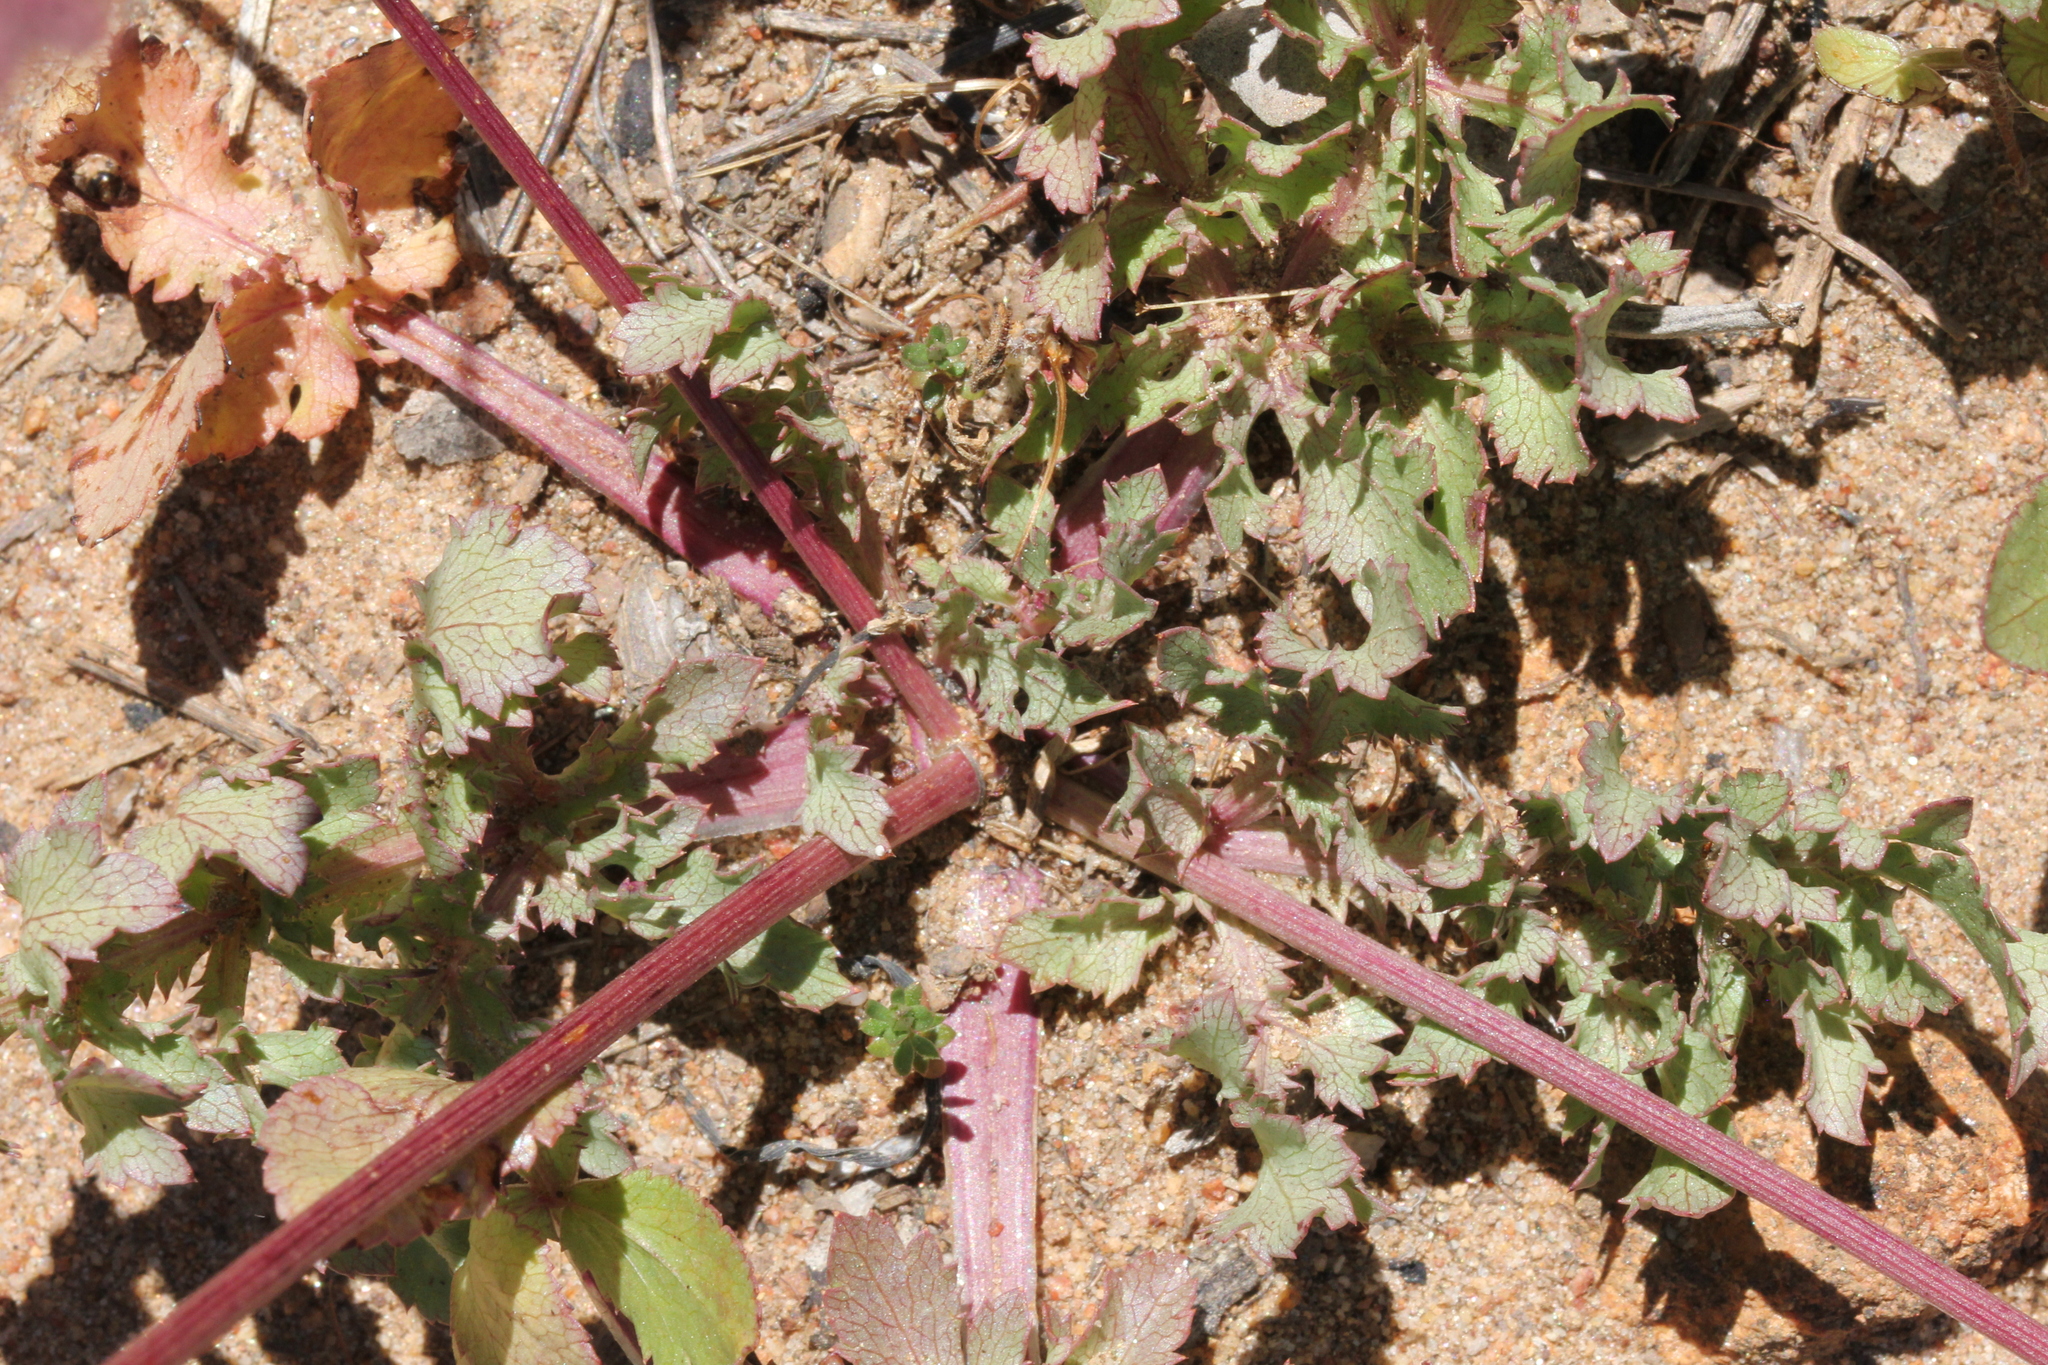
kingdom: Plantae
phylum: Tracheophyta
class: Magnoliopsida
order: Apiales
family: Apiaceae
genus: Sanicula
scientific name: Sanicula bipinnatifida
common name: Shoe-buttons
